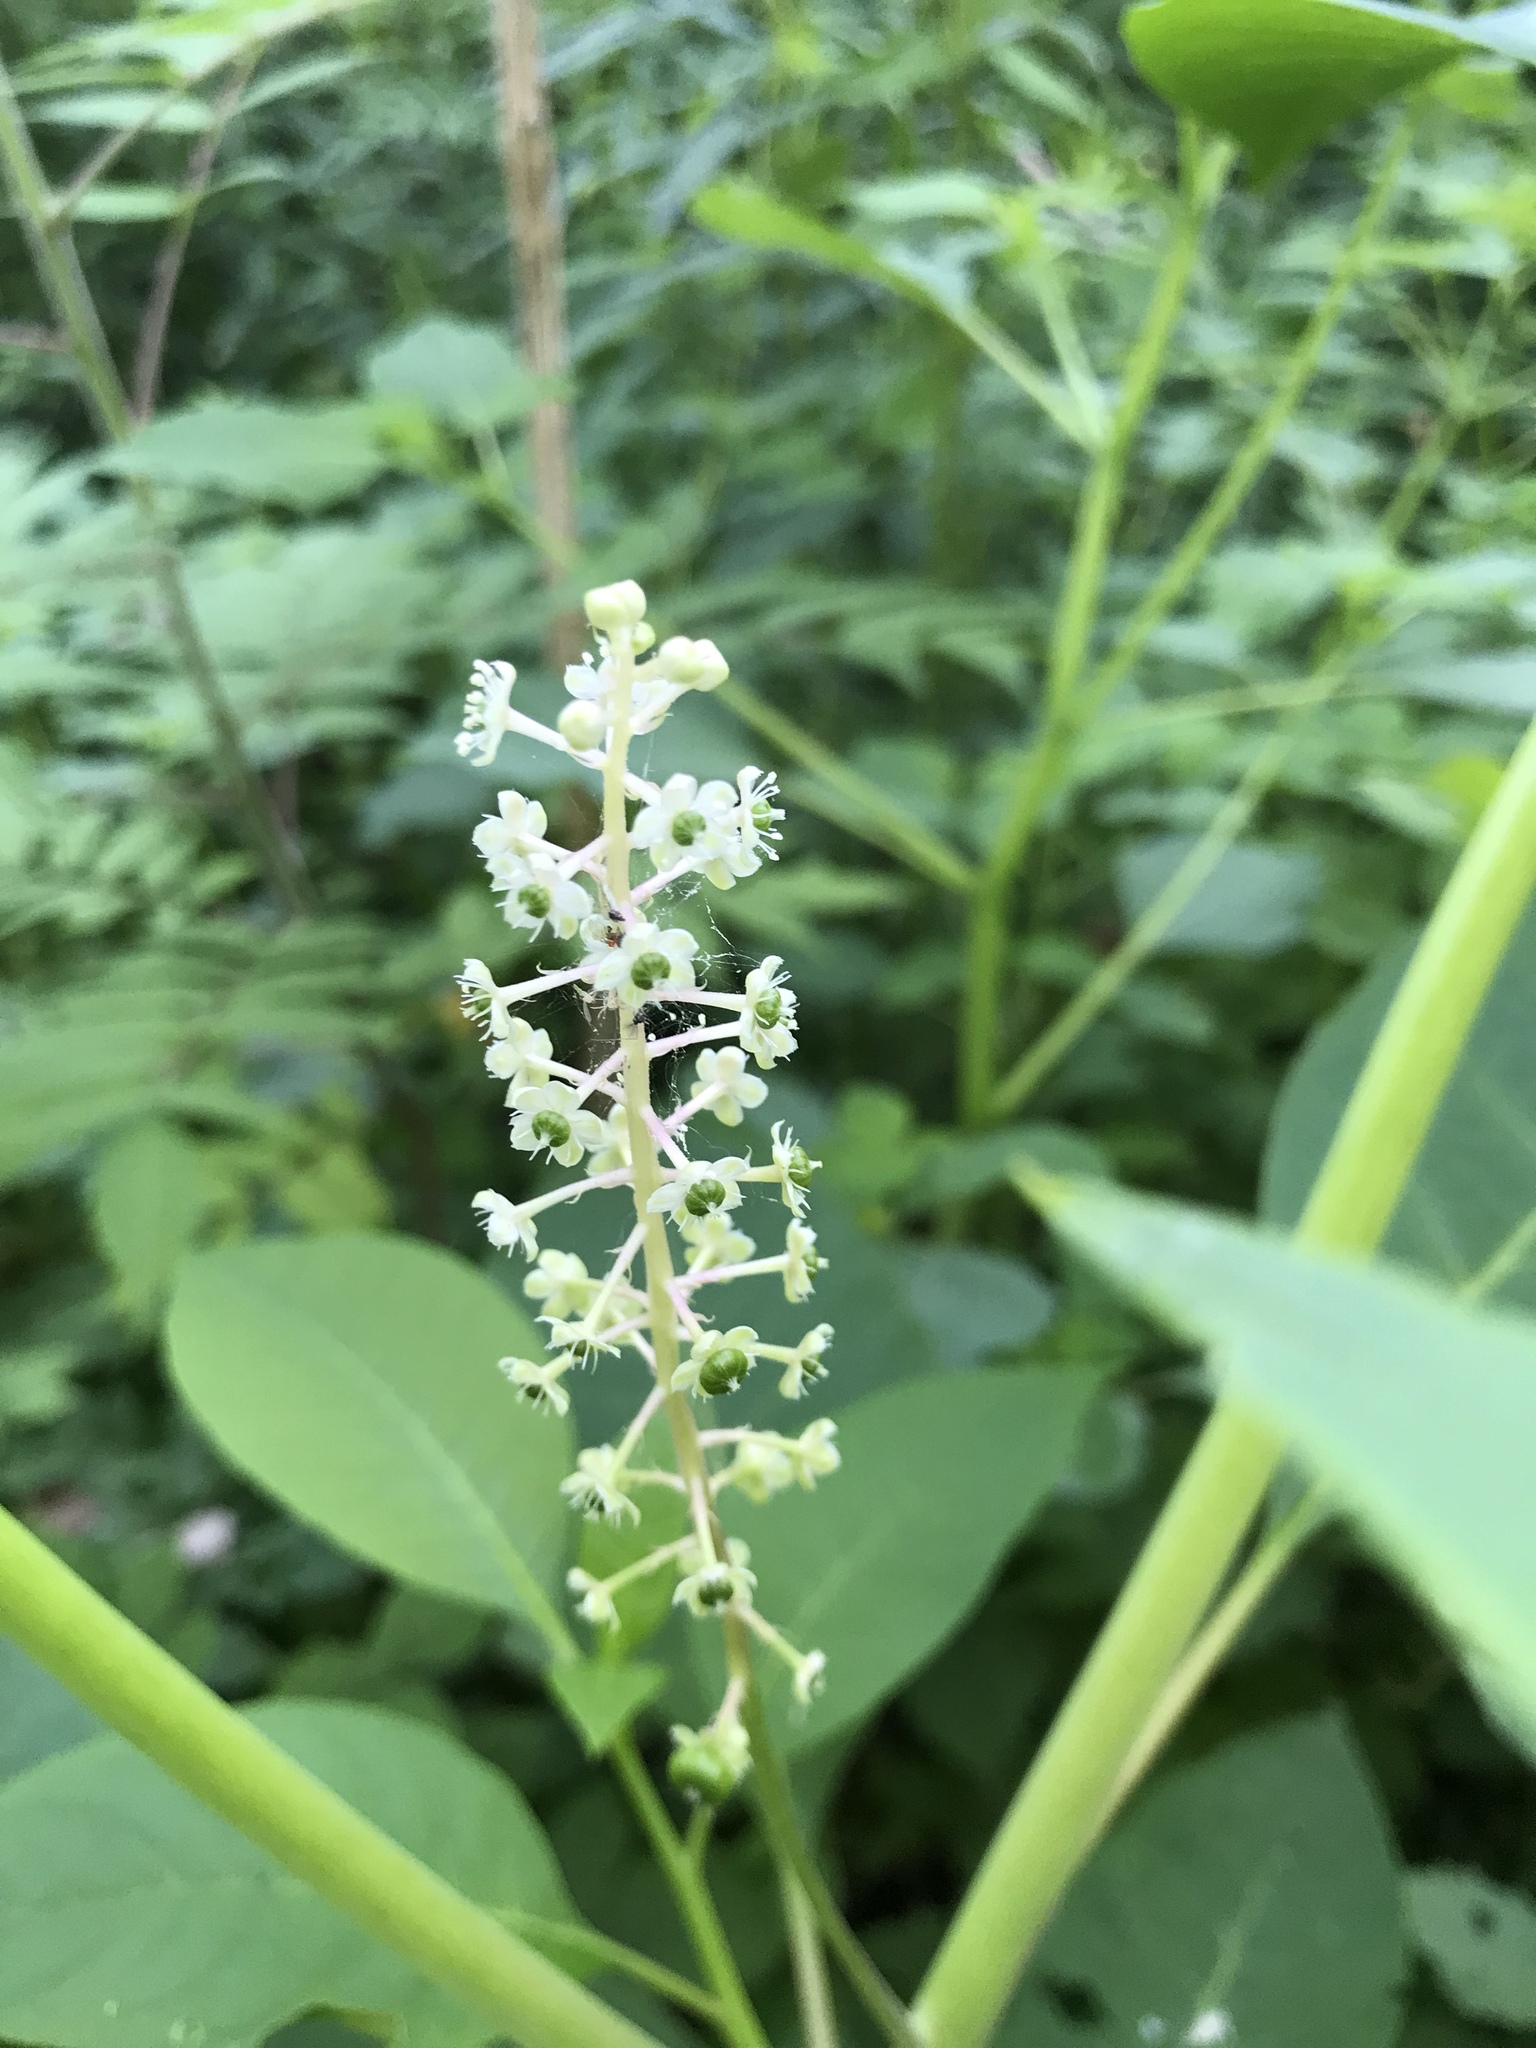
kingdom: Plantae
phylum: Tracheophyta
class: Magnoliopsida
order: Caryophyllales
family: Phytolaccaceae
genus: Phytolacca
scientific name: Phytolacca americana
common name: American pokeweed
